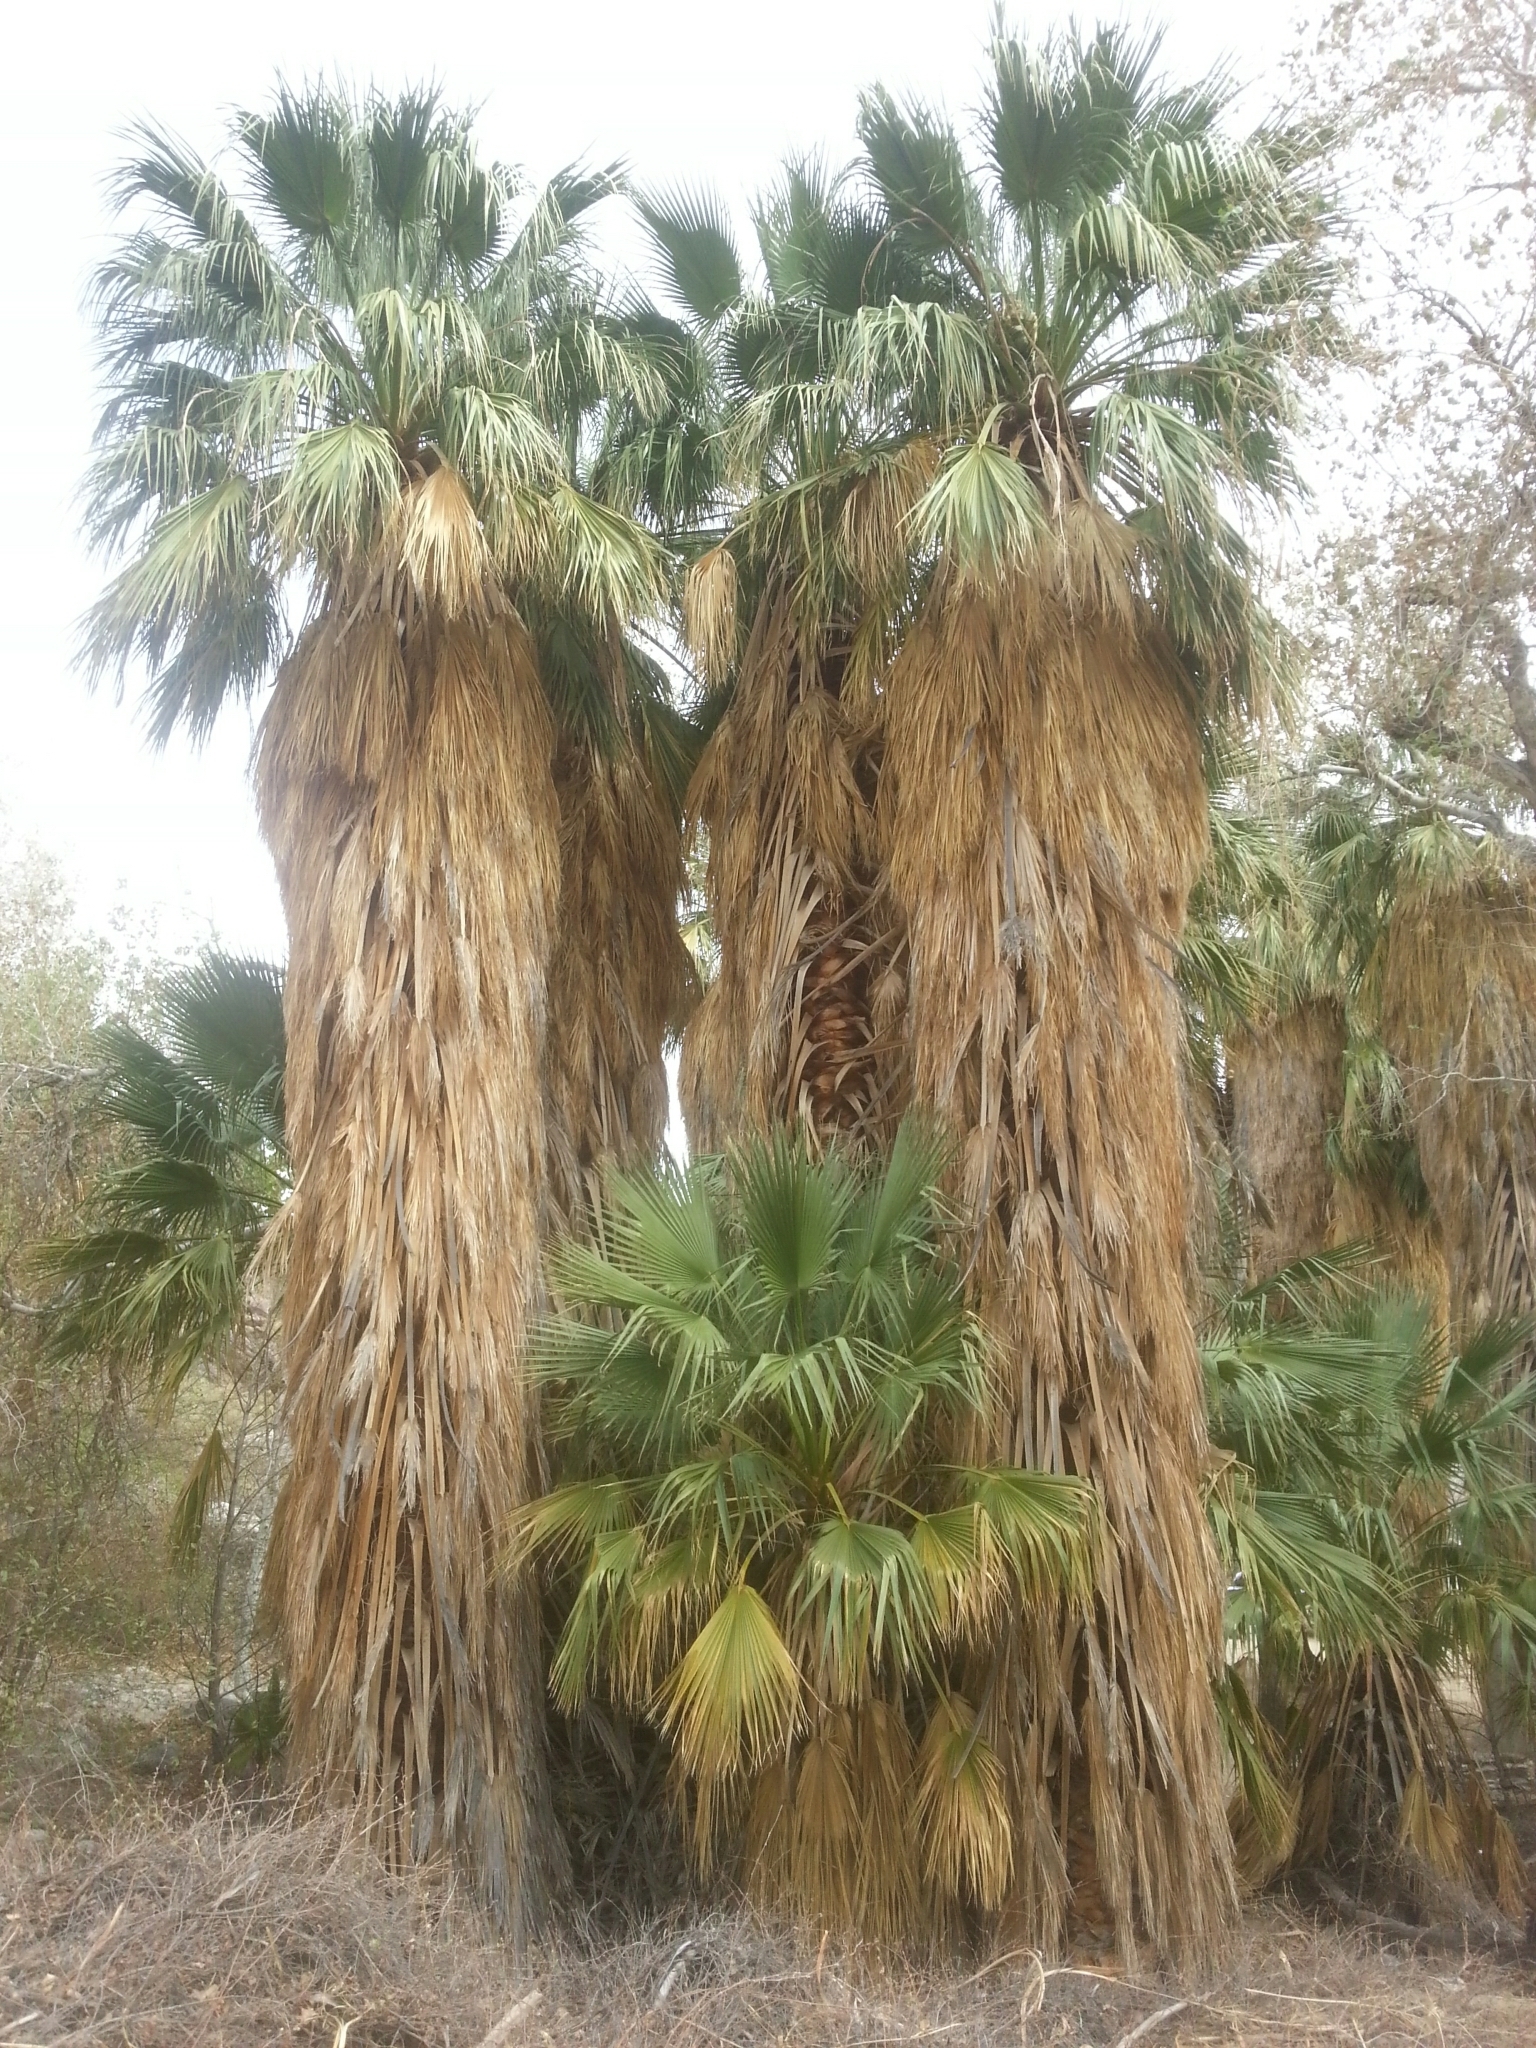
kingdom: Plantae
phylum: Tracheophyta
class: Liliopsida
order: Arecales
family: Arecaceae
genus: Washingtonia
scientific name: Washingtonia filifera
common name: California fan palm
